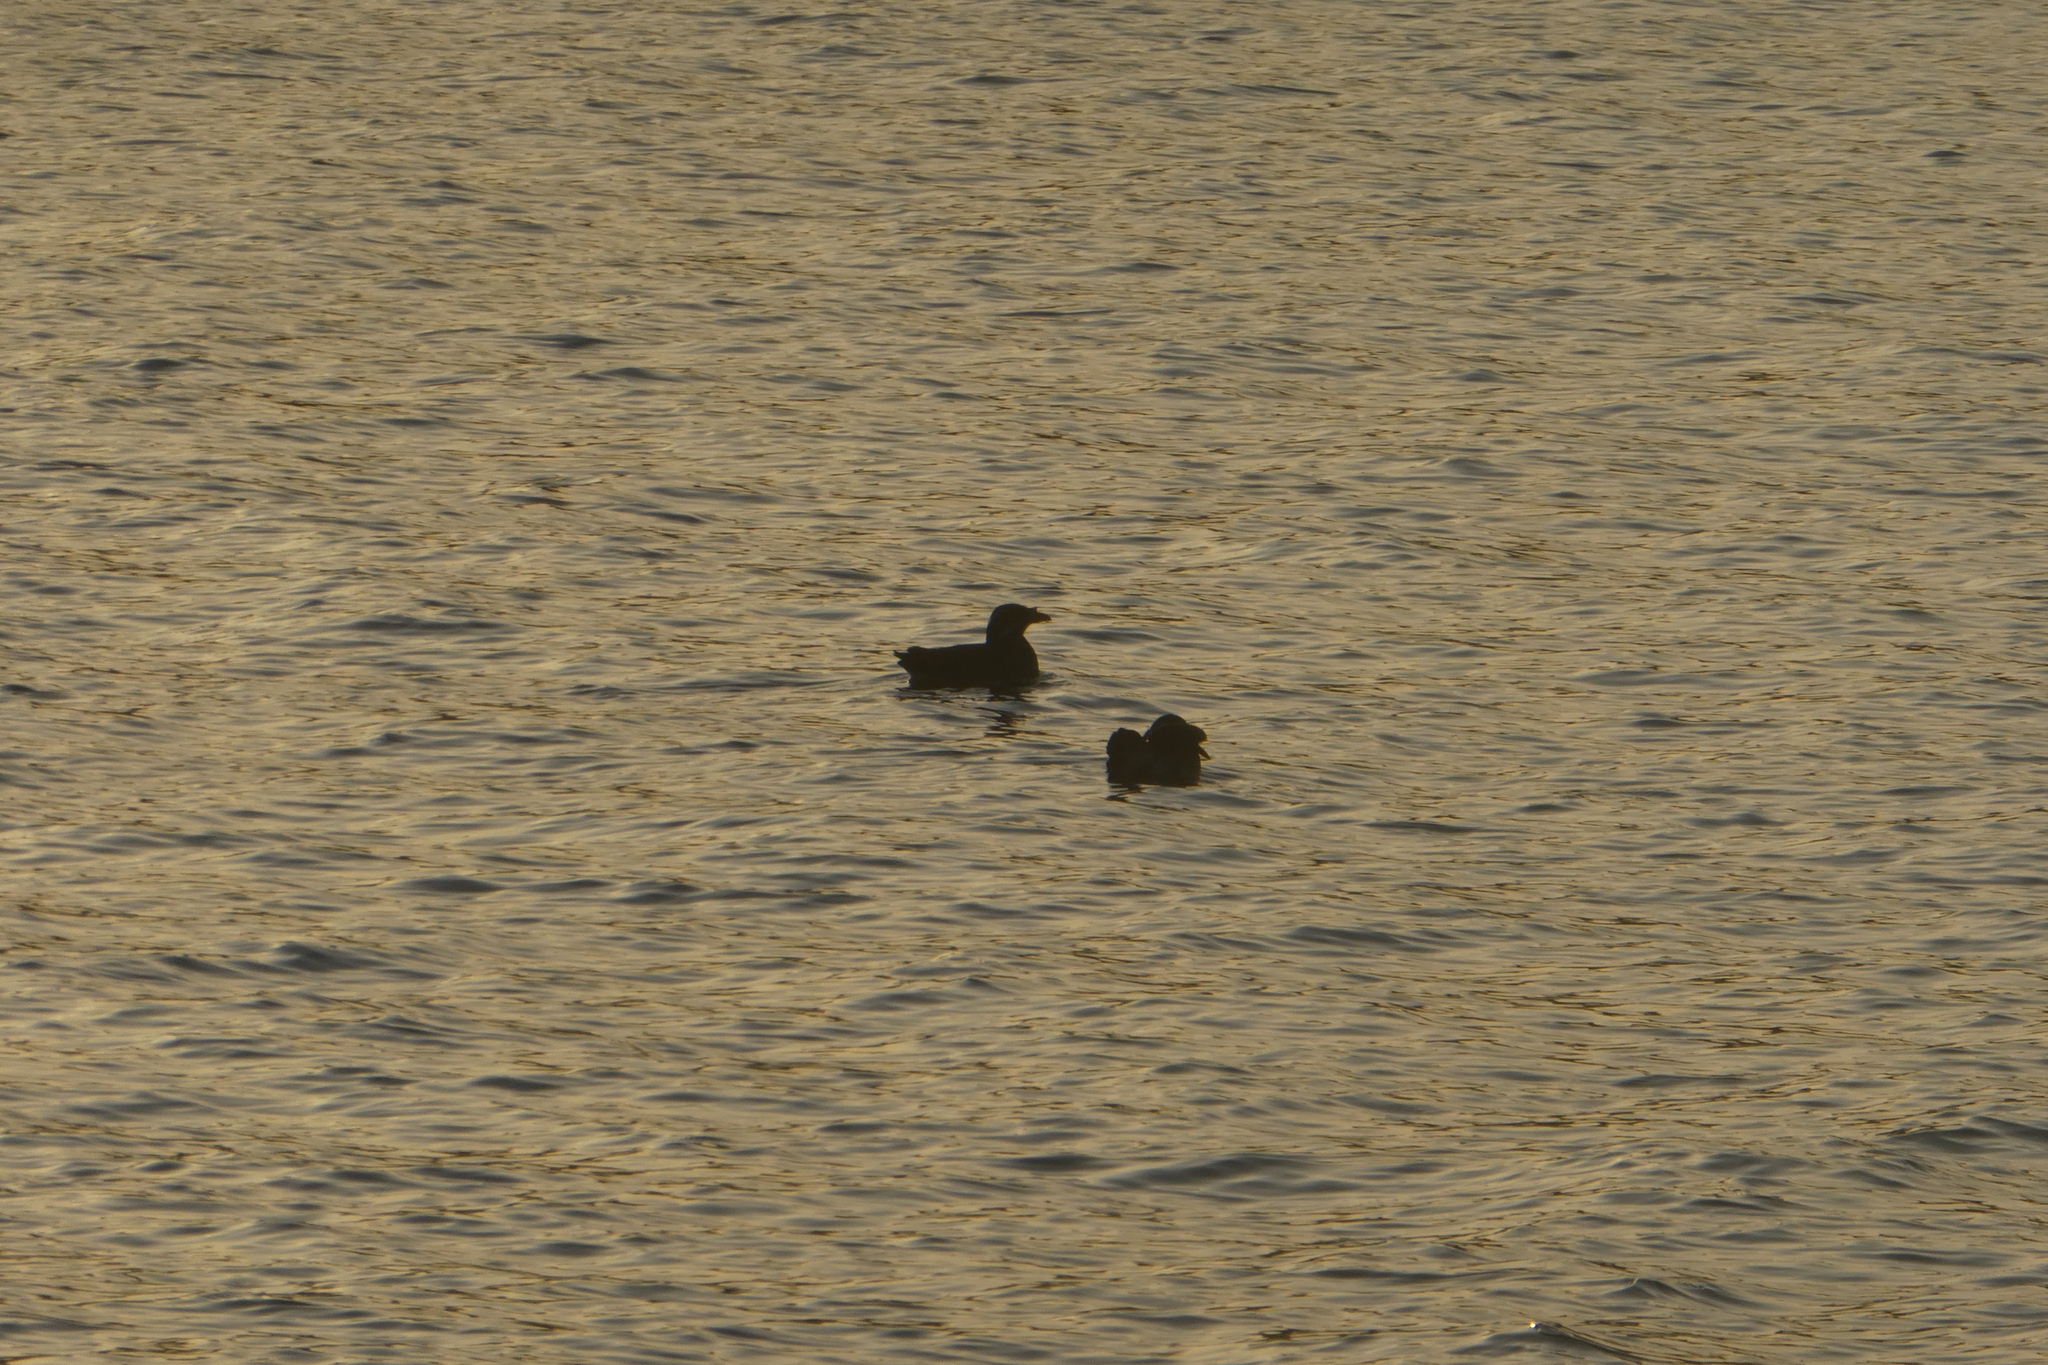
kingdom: Animalia
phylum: Chordata
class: Aves
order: Charadriiformes
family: Alcidae
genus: Cerorhinca
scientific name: Cerorhinca monocerata
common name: Rhinoceros auklet
